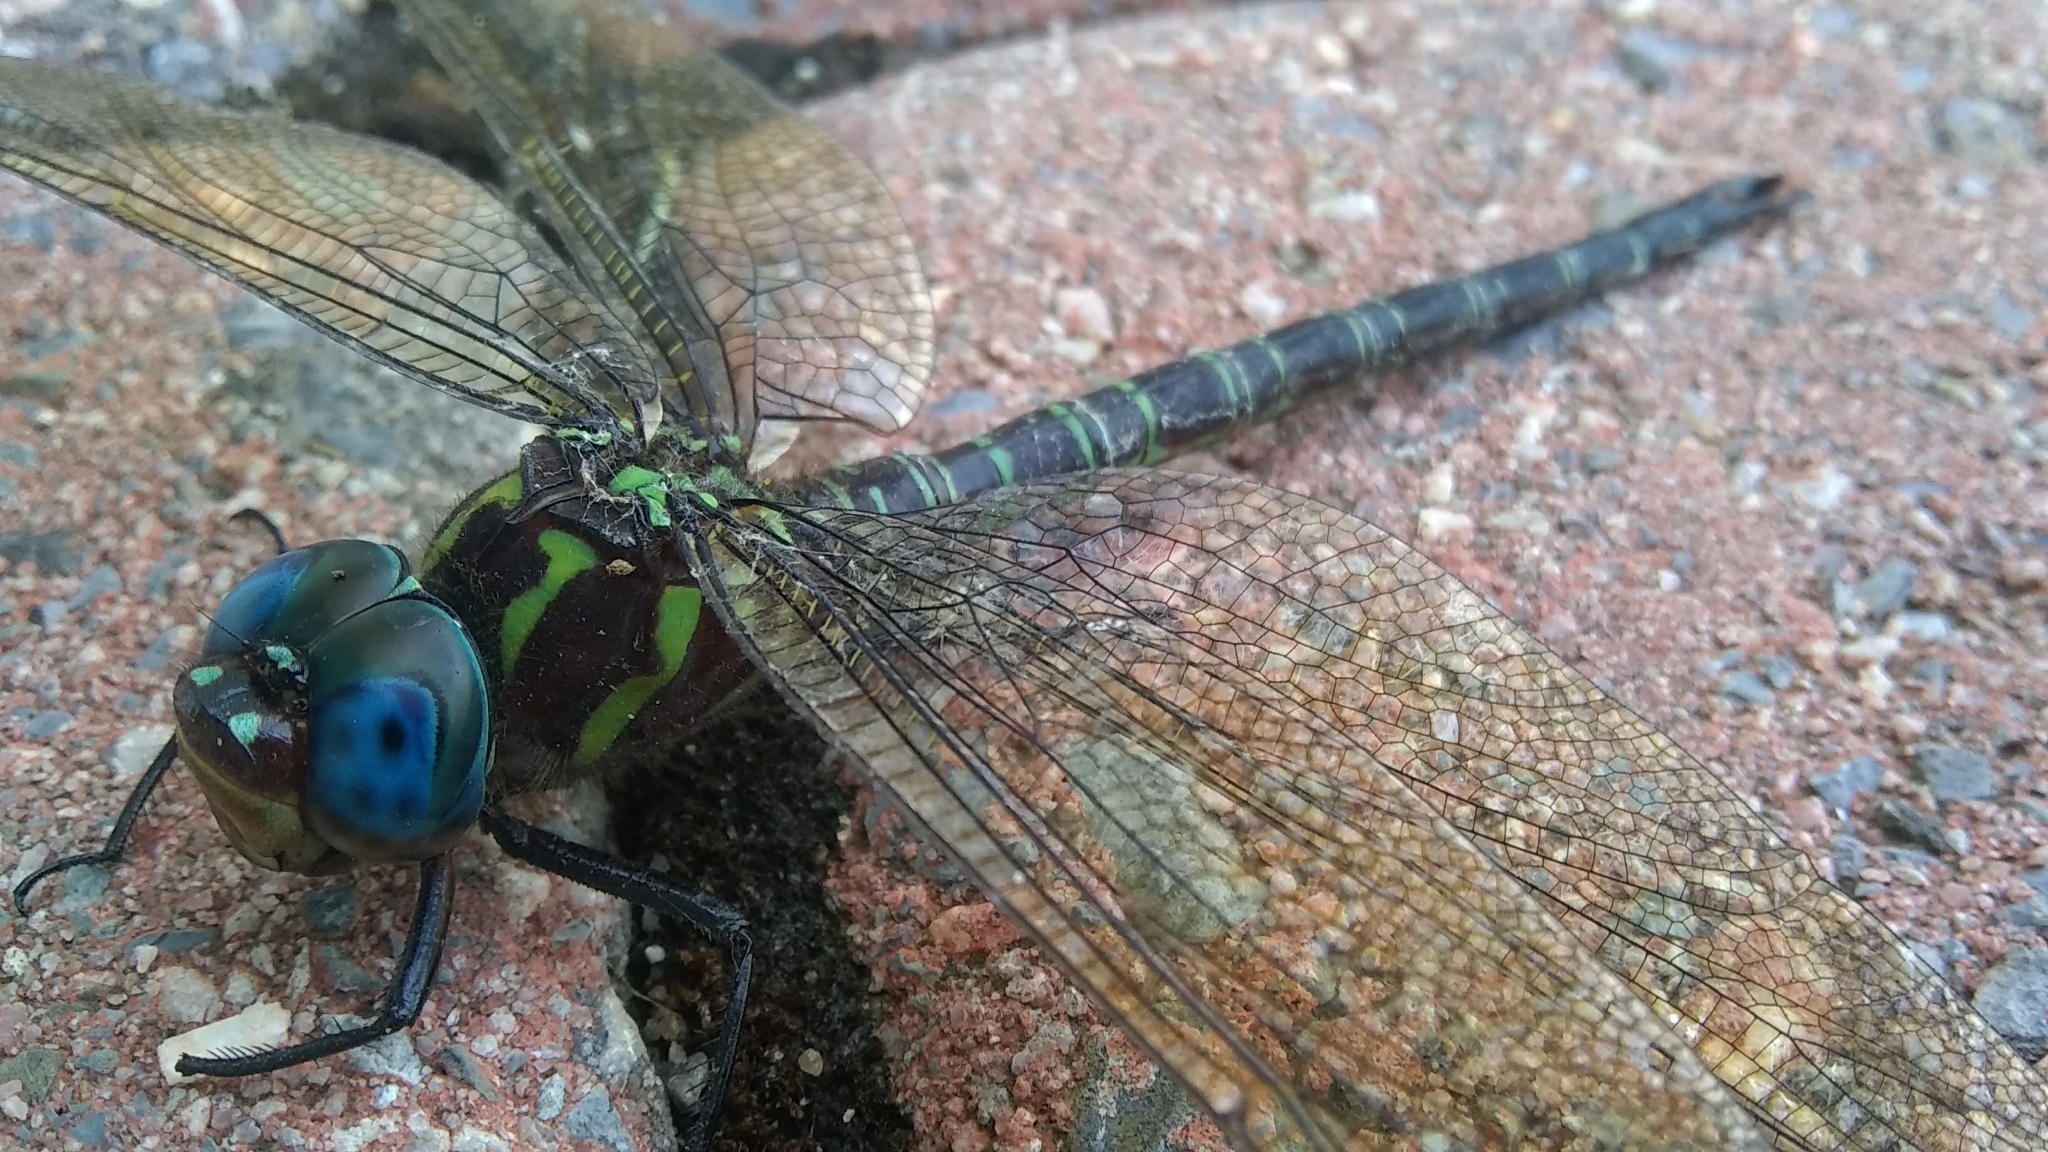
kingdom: Animalia
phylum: Arthropoda
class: Insecta
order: Odonata
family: Aeshnidae
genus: Epiaeschna
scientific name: Epiaeschna heros
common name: Swamp darner
